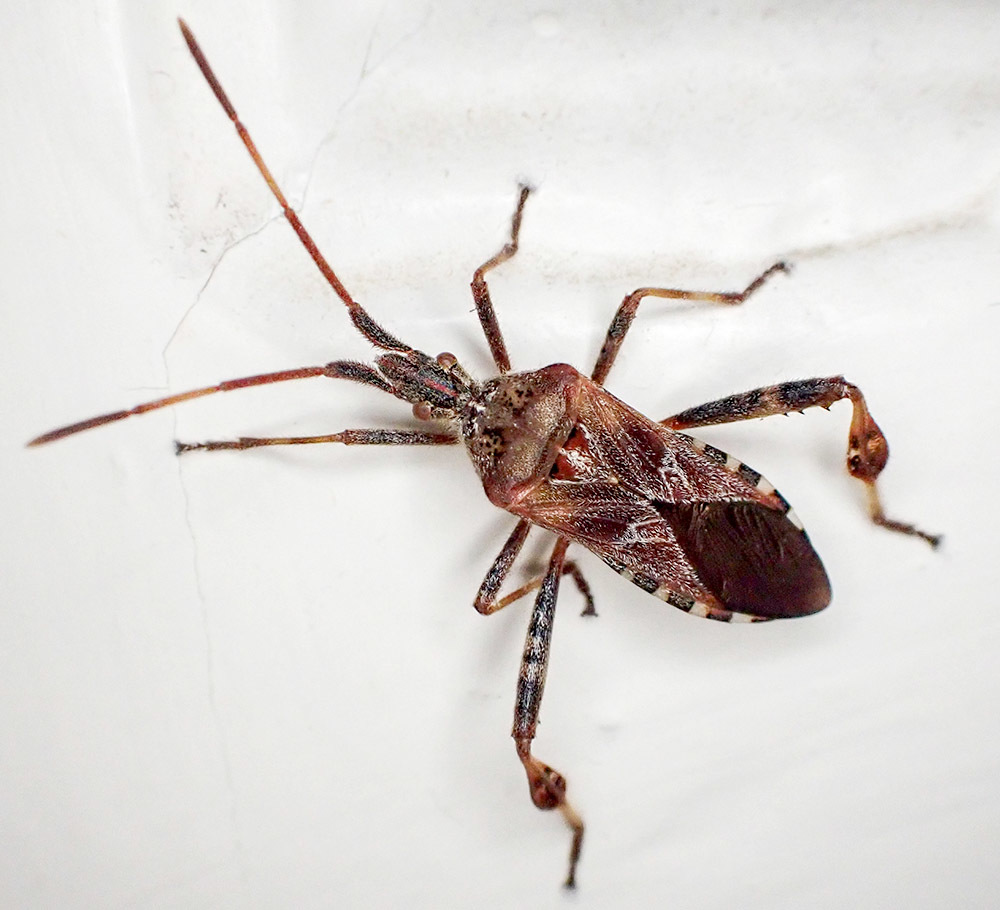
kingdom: Animalia
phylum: Arthropoda
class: Insecta
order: Hemiptera
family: Coreidae
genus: Leptoglossus
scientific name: Leptoglossus occidentalis
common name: Western conifer-seed bug
